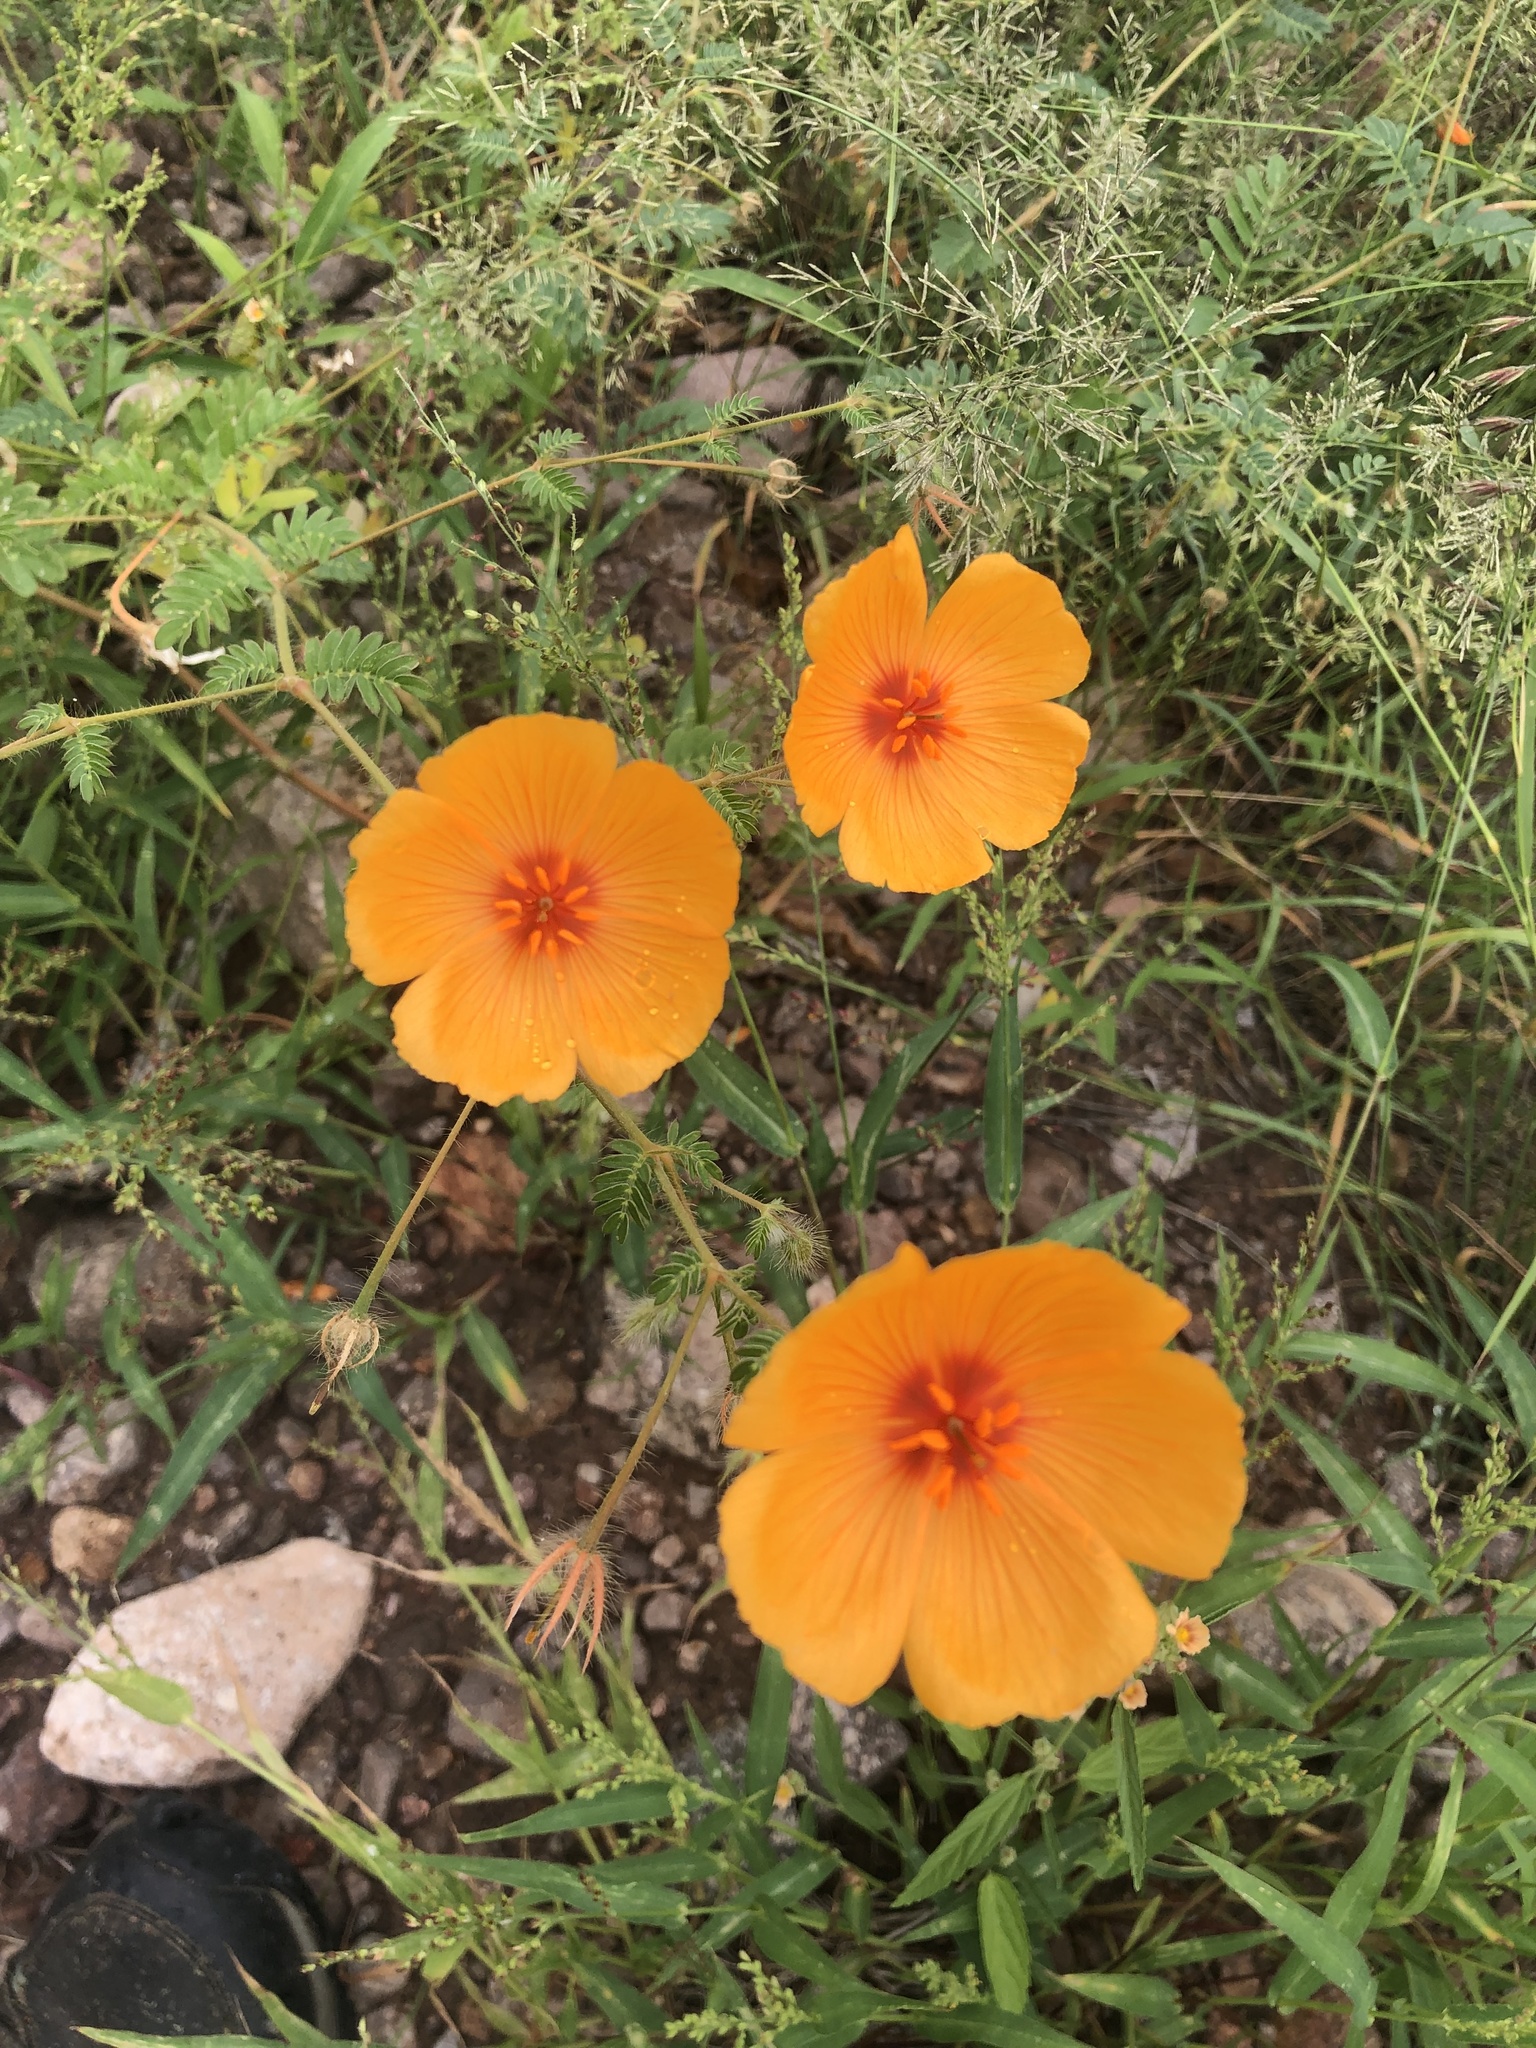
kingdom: Plantae
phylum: Tracheophyta
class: Magnoliopsida
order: Zygophyllales
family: Zygophyllaceae
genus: Kallstroemia
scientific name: Kallstroemia grandiflora
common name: Arizona-poppy
